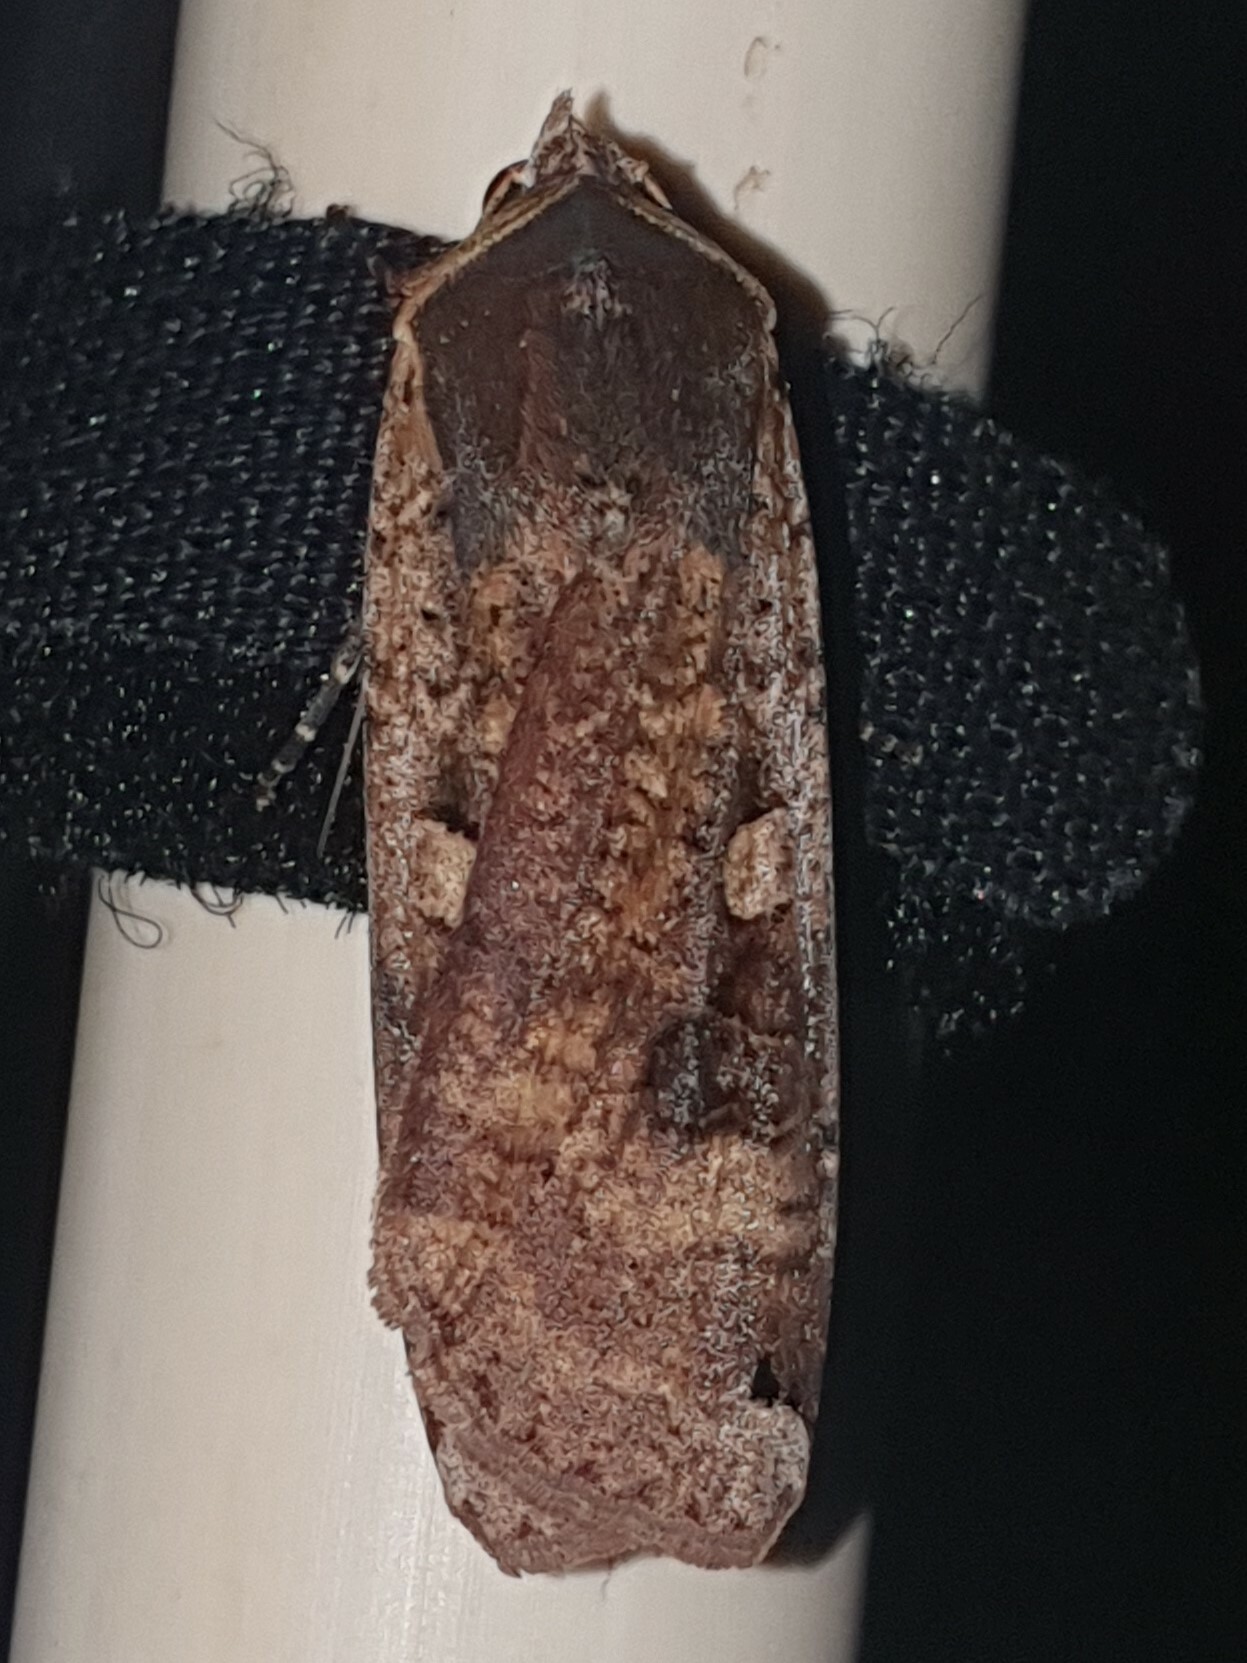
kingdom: Animalia
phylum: Arthropoda
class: Insecta
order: Lepidoptera
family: Noctuidae
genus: Noctua
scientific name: Noctua pronuba
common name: Large yellow underwing
